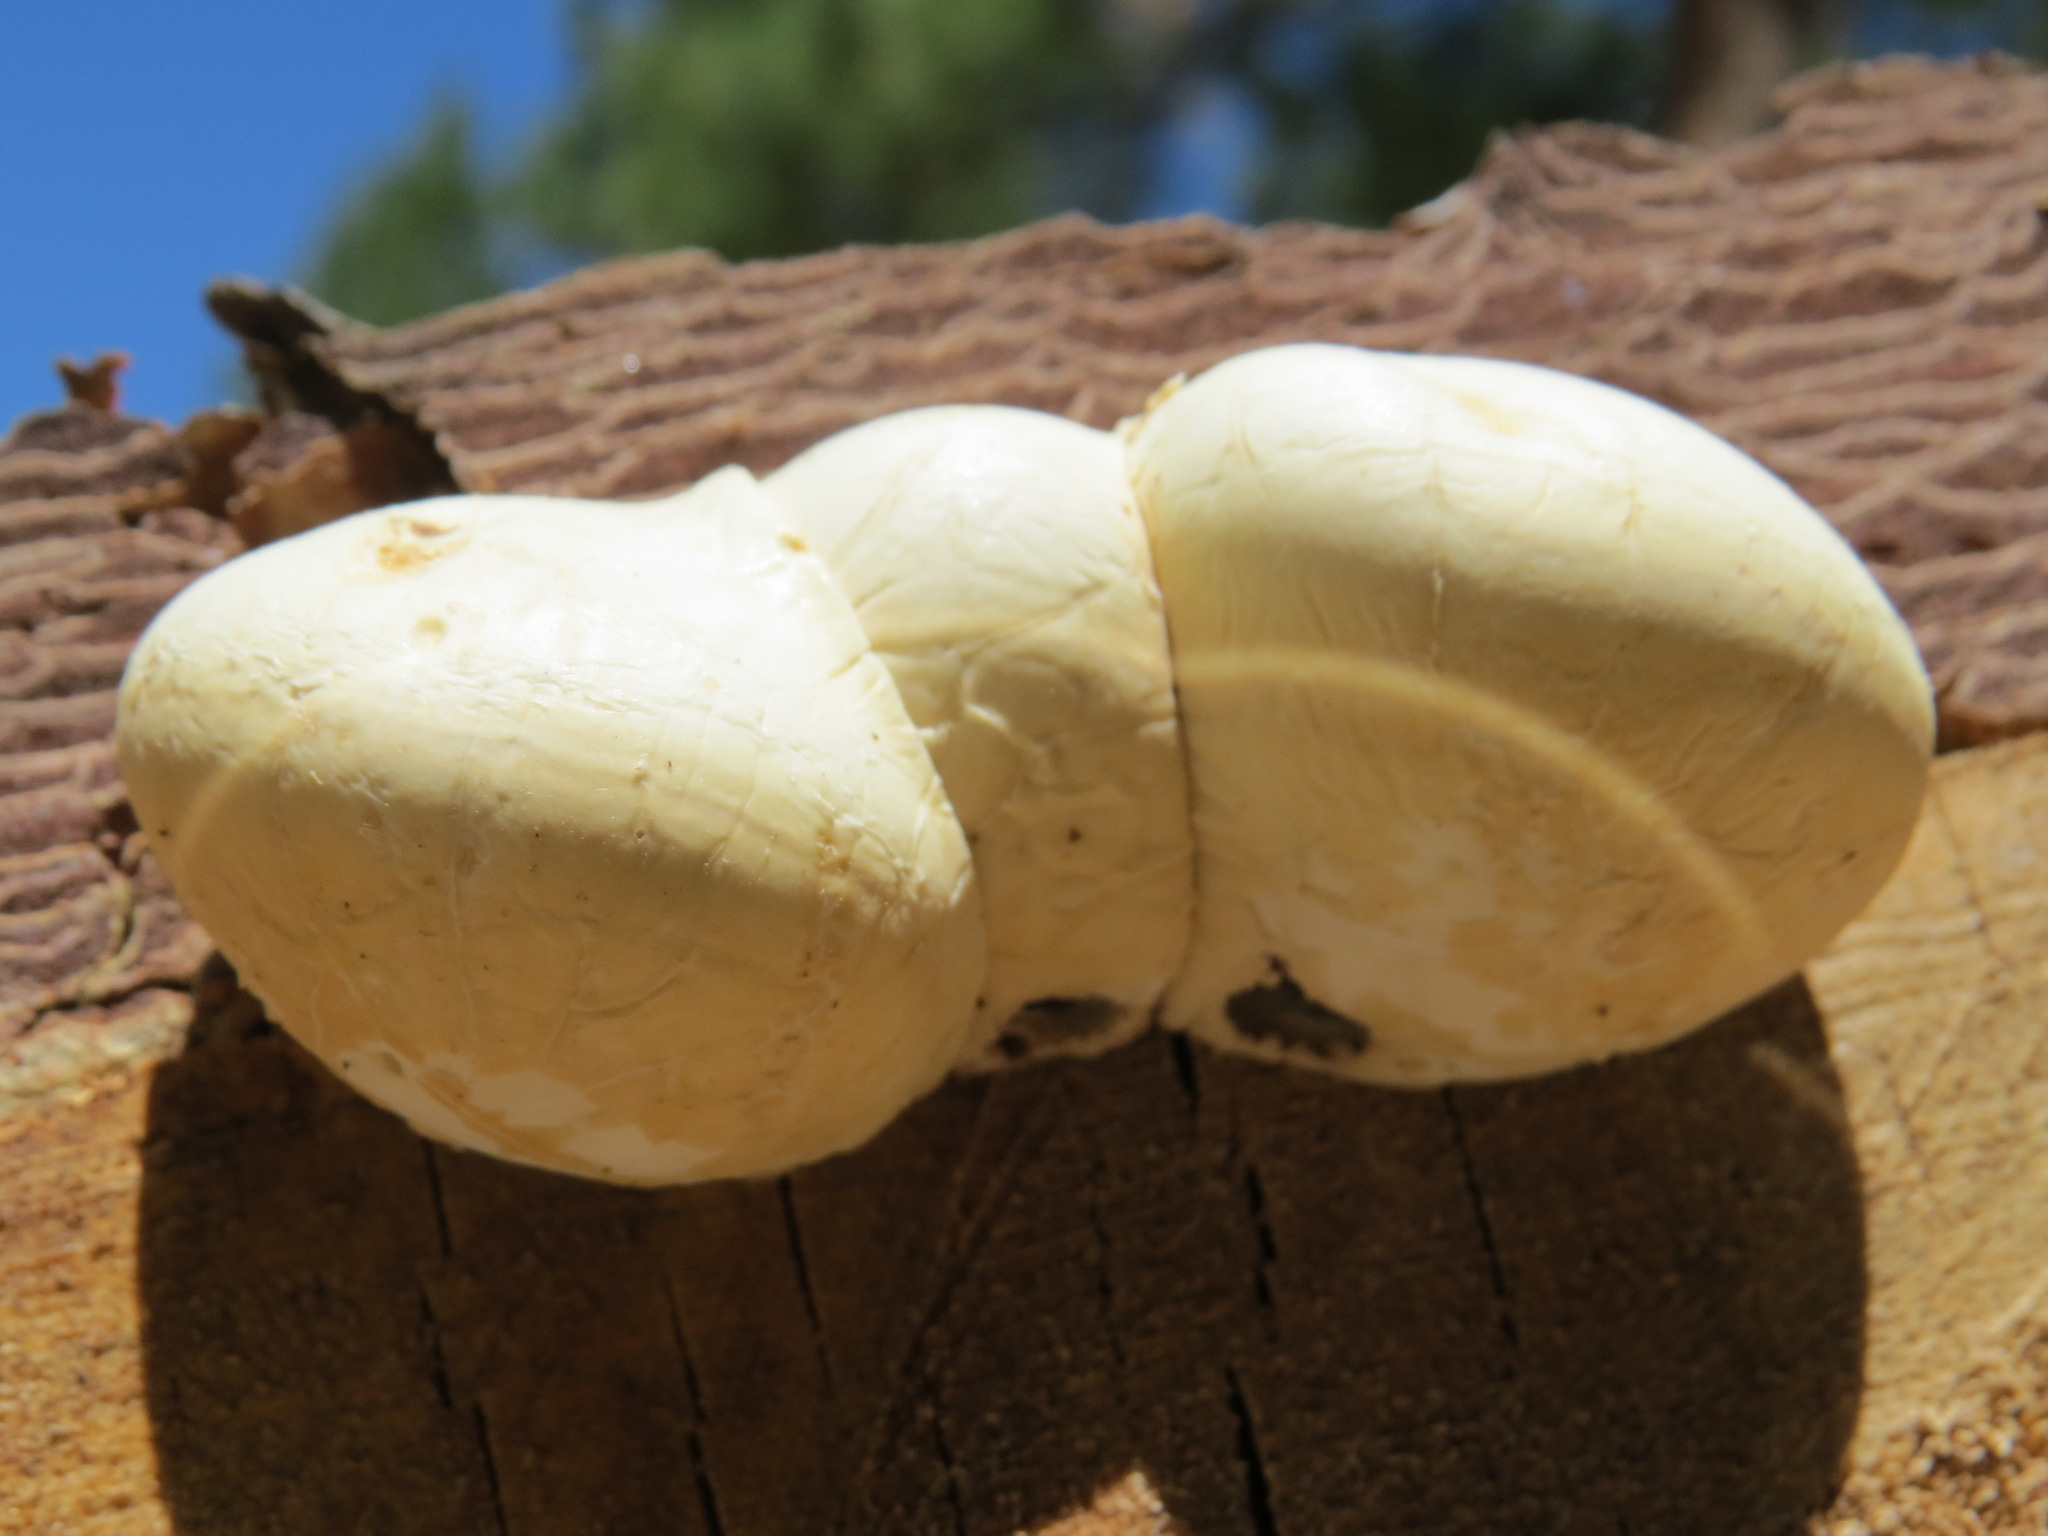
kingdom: Fungi
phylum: Basidiomycota
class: Agaricomycetes
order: Polyporales
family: Polyporaceae
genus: Cryptoporus
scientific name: Cryptoporus volvatus
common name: Veiled polypore
